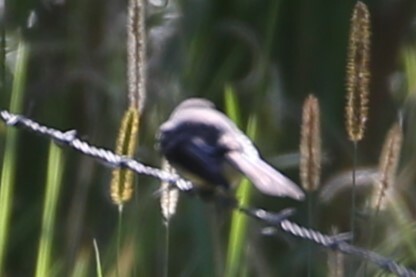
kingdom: Animalia
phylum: Chordata
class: Aves
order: Passeriformes
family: Rhipiduridae
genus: Rhipidura
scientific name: Rhipidura albiscapa
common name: Grey fantail
